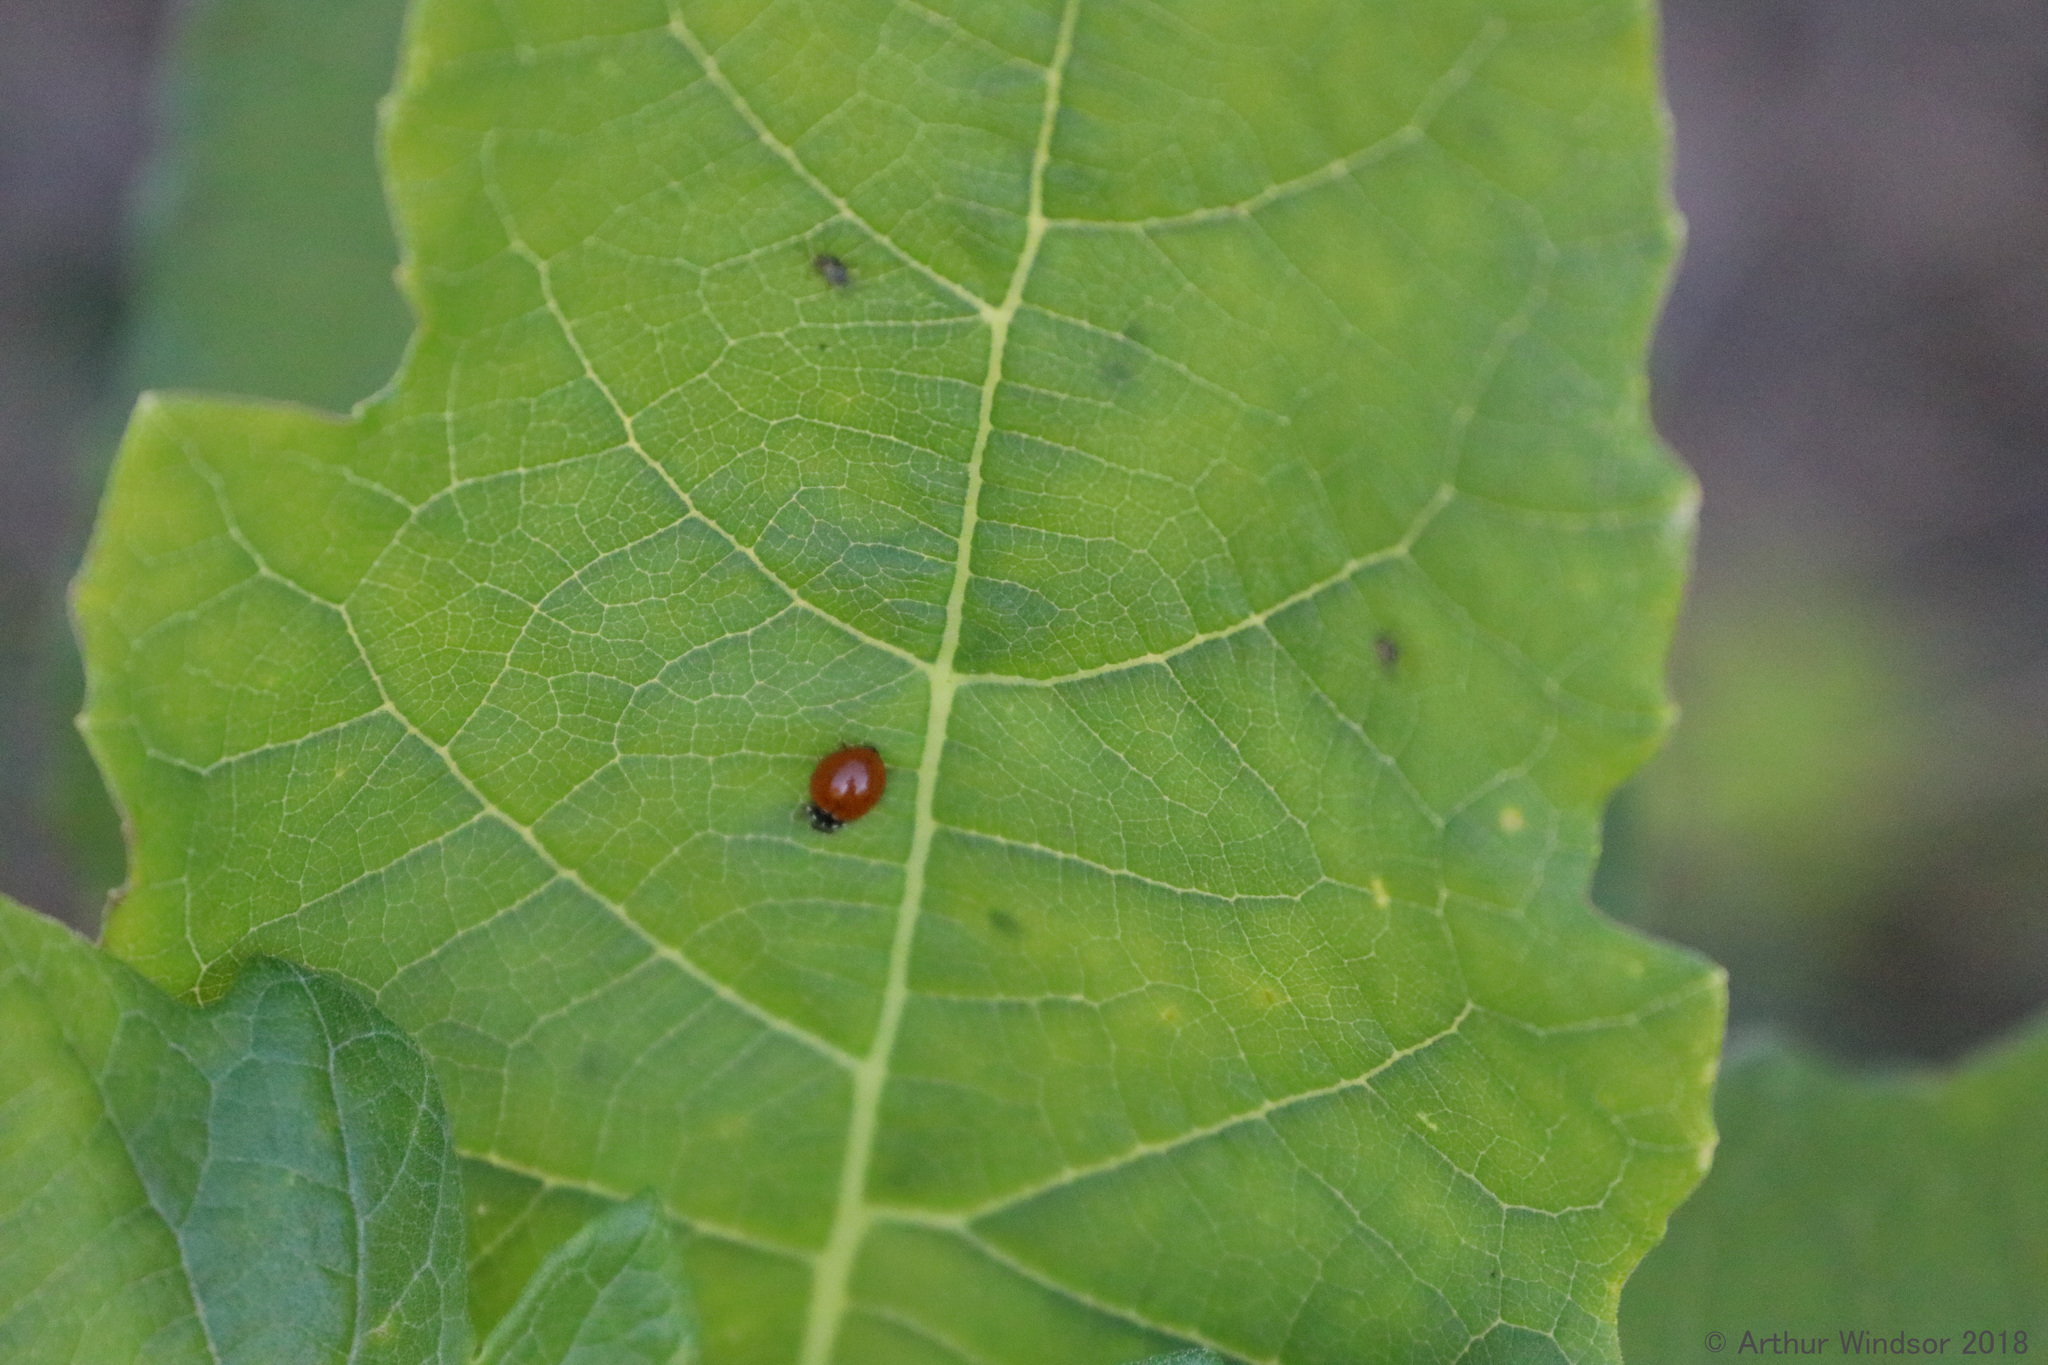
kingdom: Animalia
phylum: Arthropoda
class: Insecta
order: Coleoptera
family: Coccinellidae
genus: Cycloneda
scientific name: Cycloneda sanguinea
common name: Ladybird beetle
